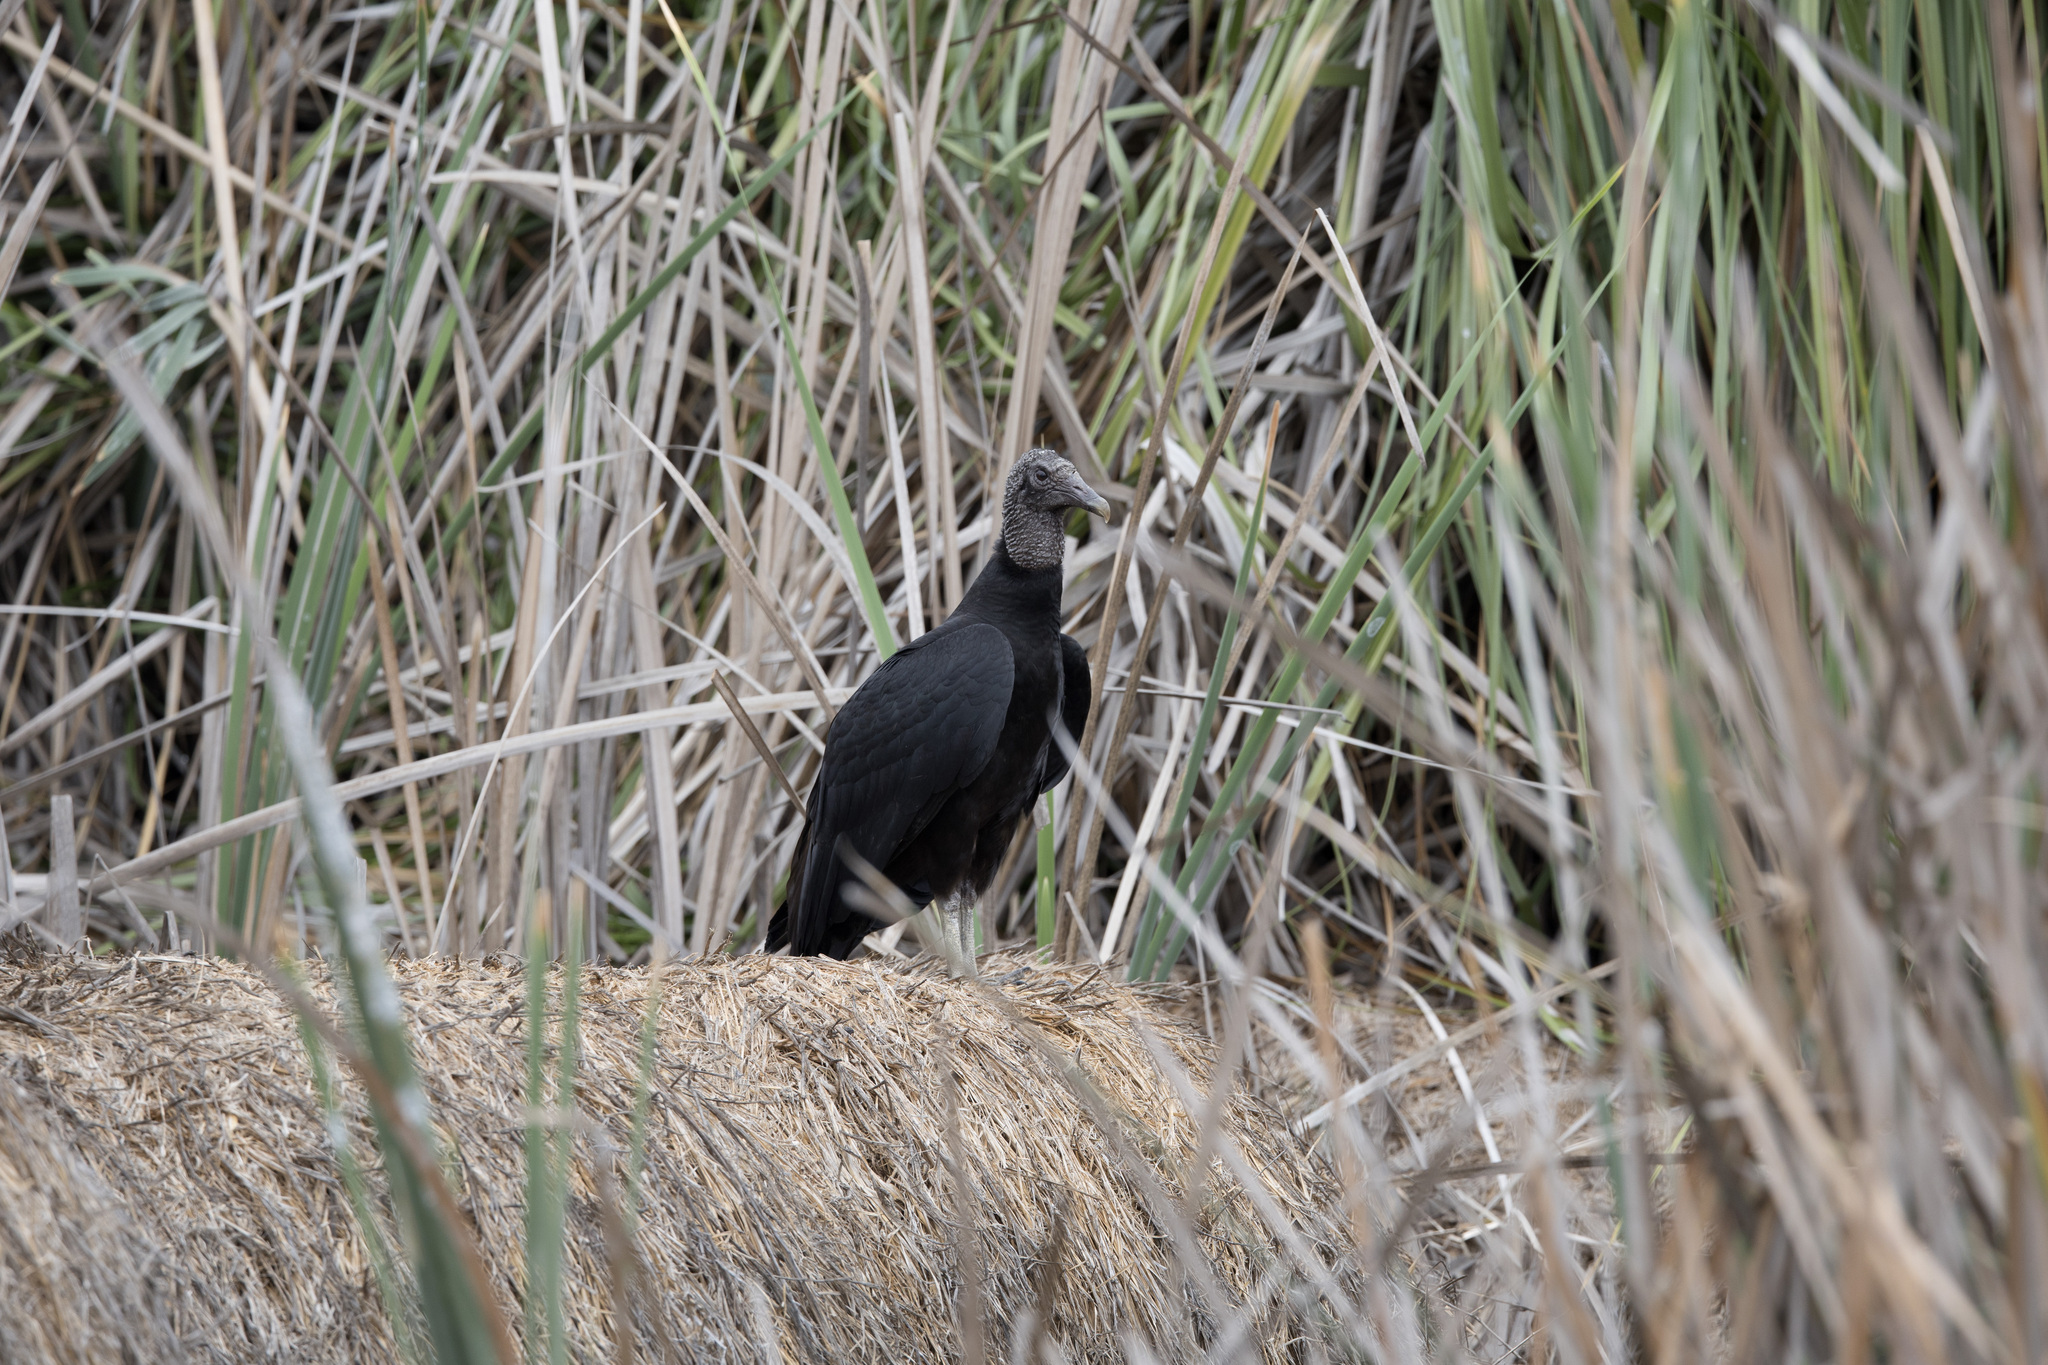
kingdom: Animalia
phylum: Chordata
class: Aves
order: Accipitriformes
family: Cathartidae
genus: Coragyps
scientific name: Coragyps atratus
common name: Black vulture
